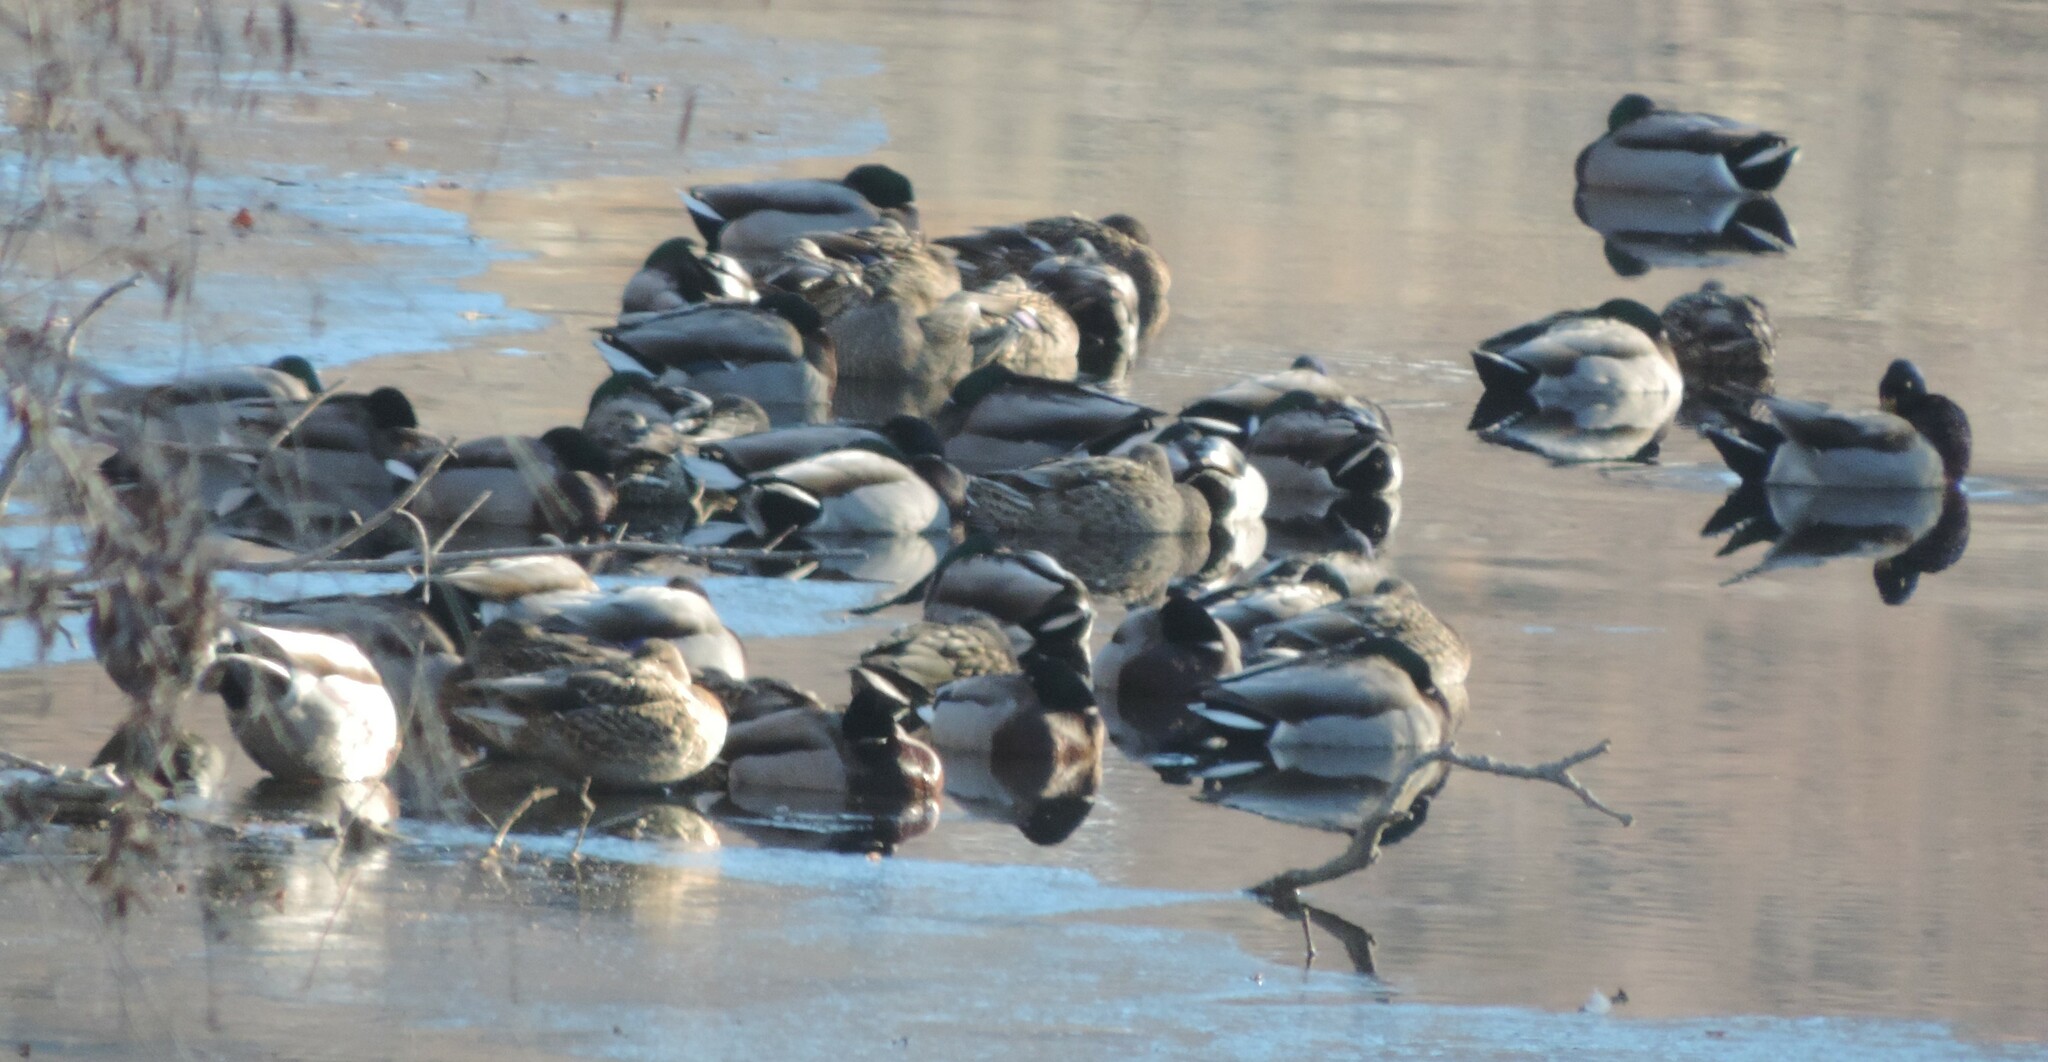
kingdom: Animalia
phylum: Chordata
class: Aves
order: Anseriformes
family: Anatidae
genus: Anas
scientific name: Anas platyrhynchos
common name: Mallard
